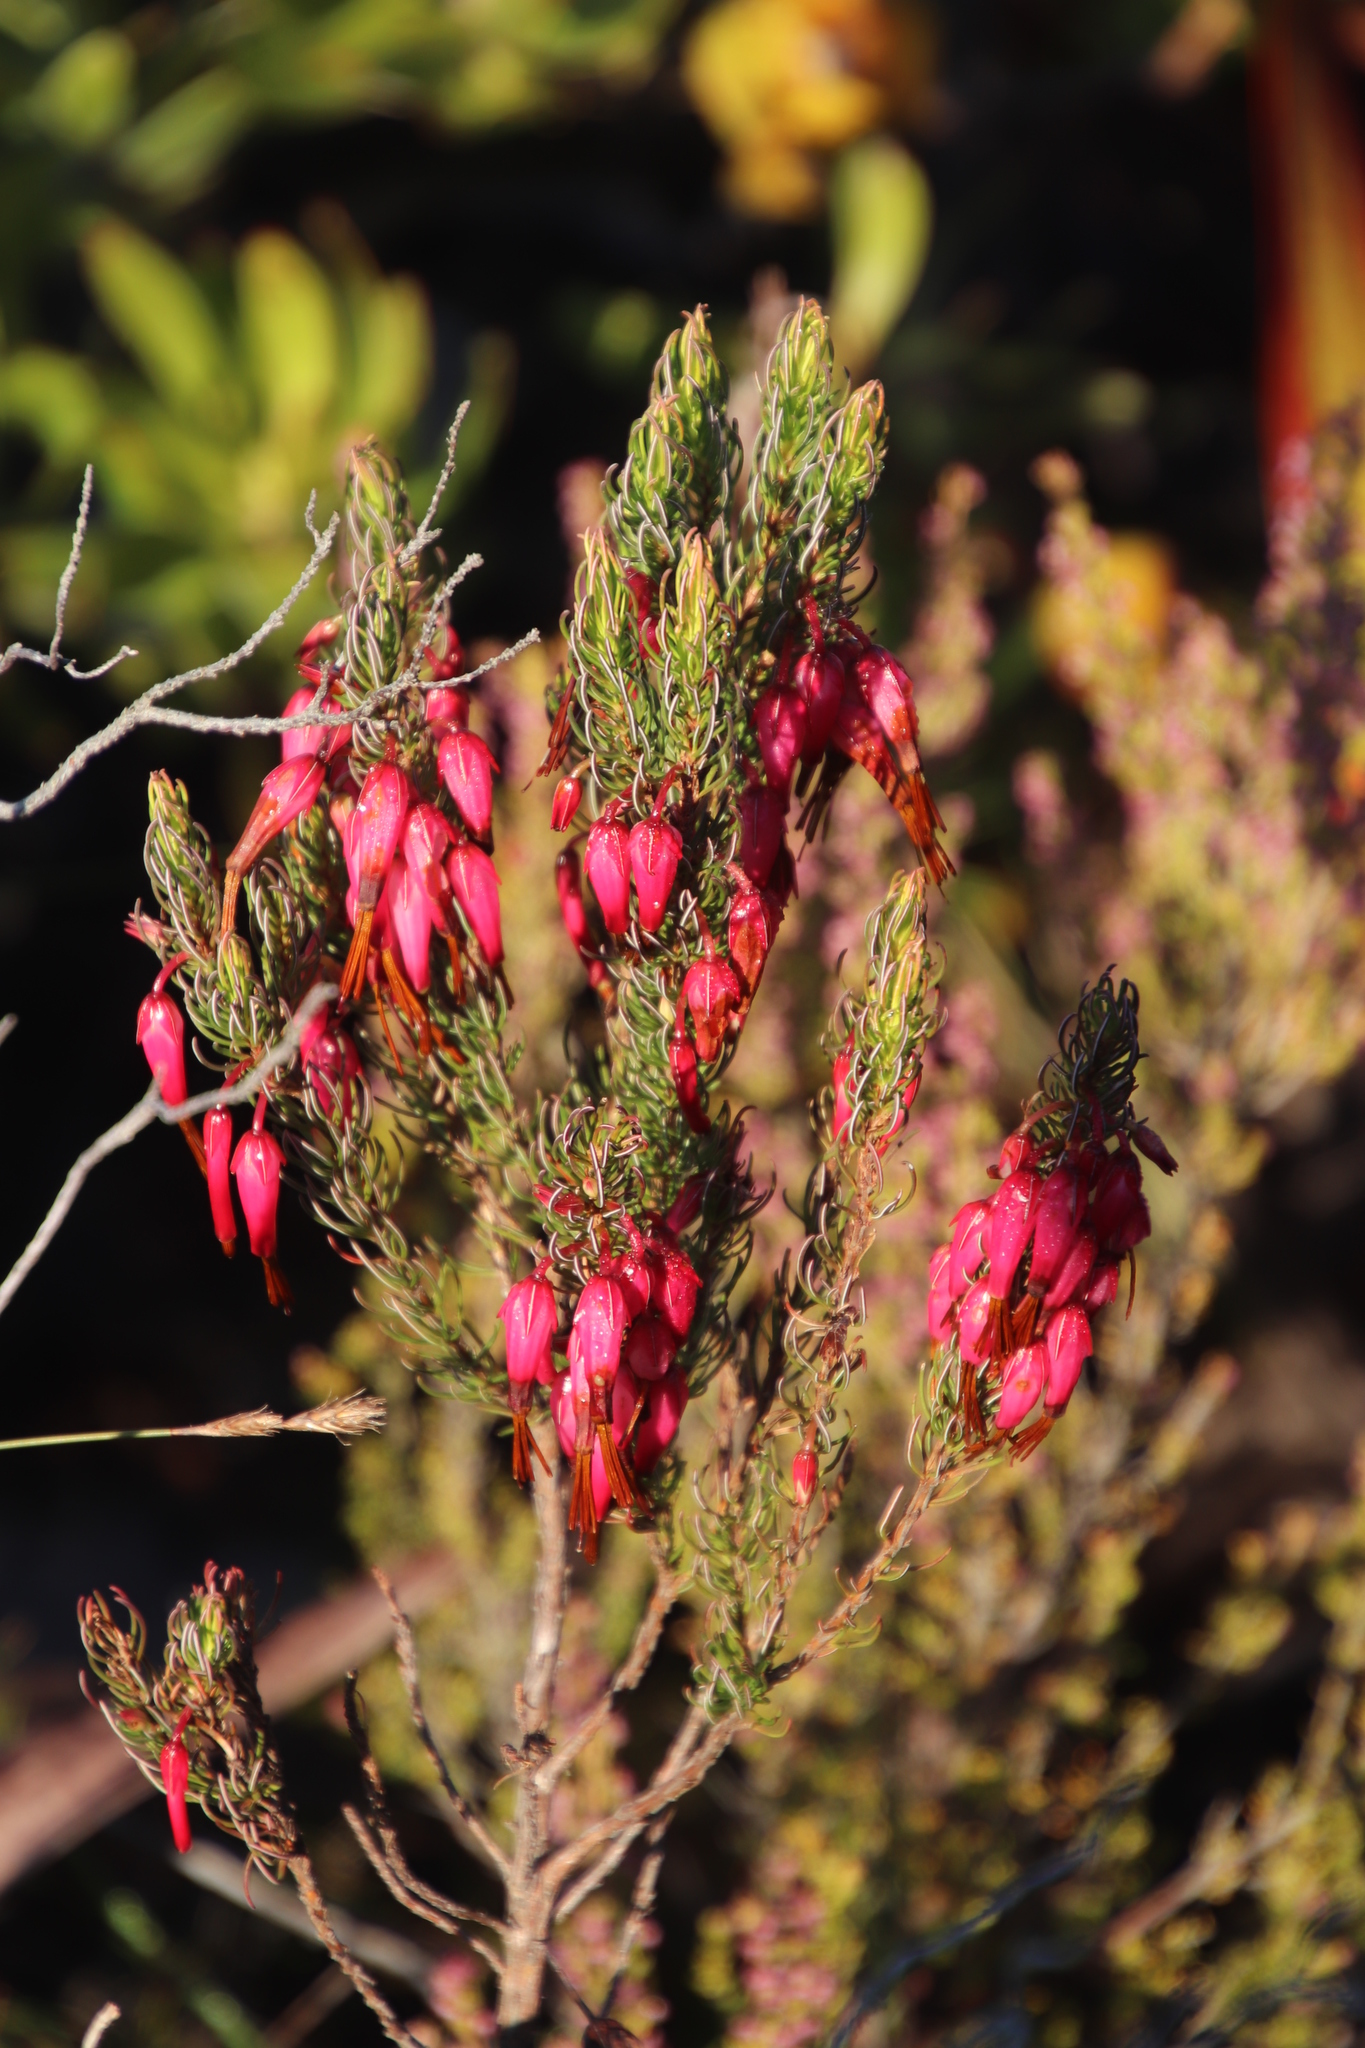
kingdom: Plantae
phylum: Tracheophyta
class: Magnoliopsida
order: Ericales
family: Ericaceae
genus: Erica
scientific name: Erica plukenetii
